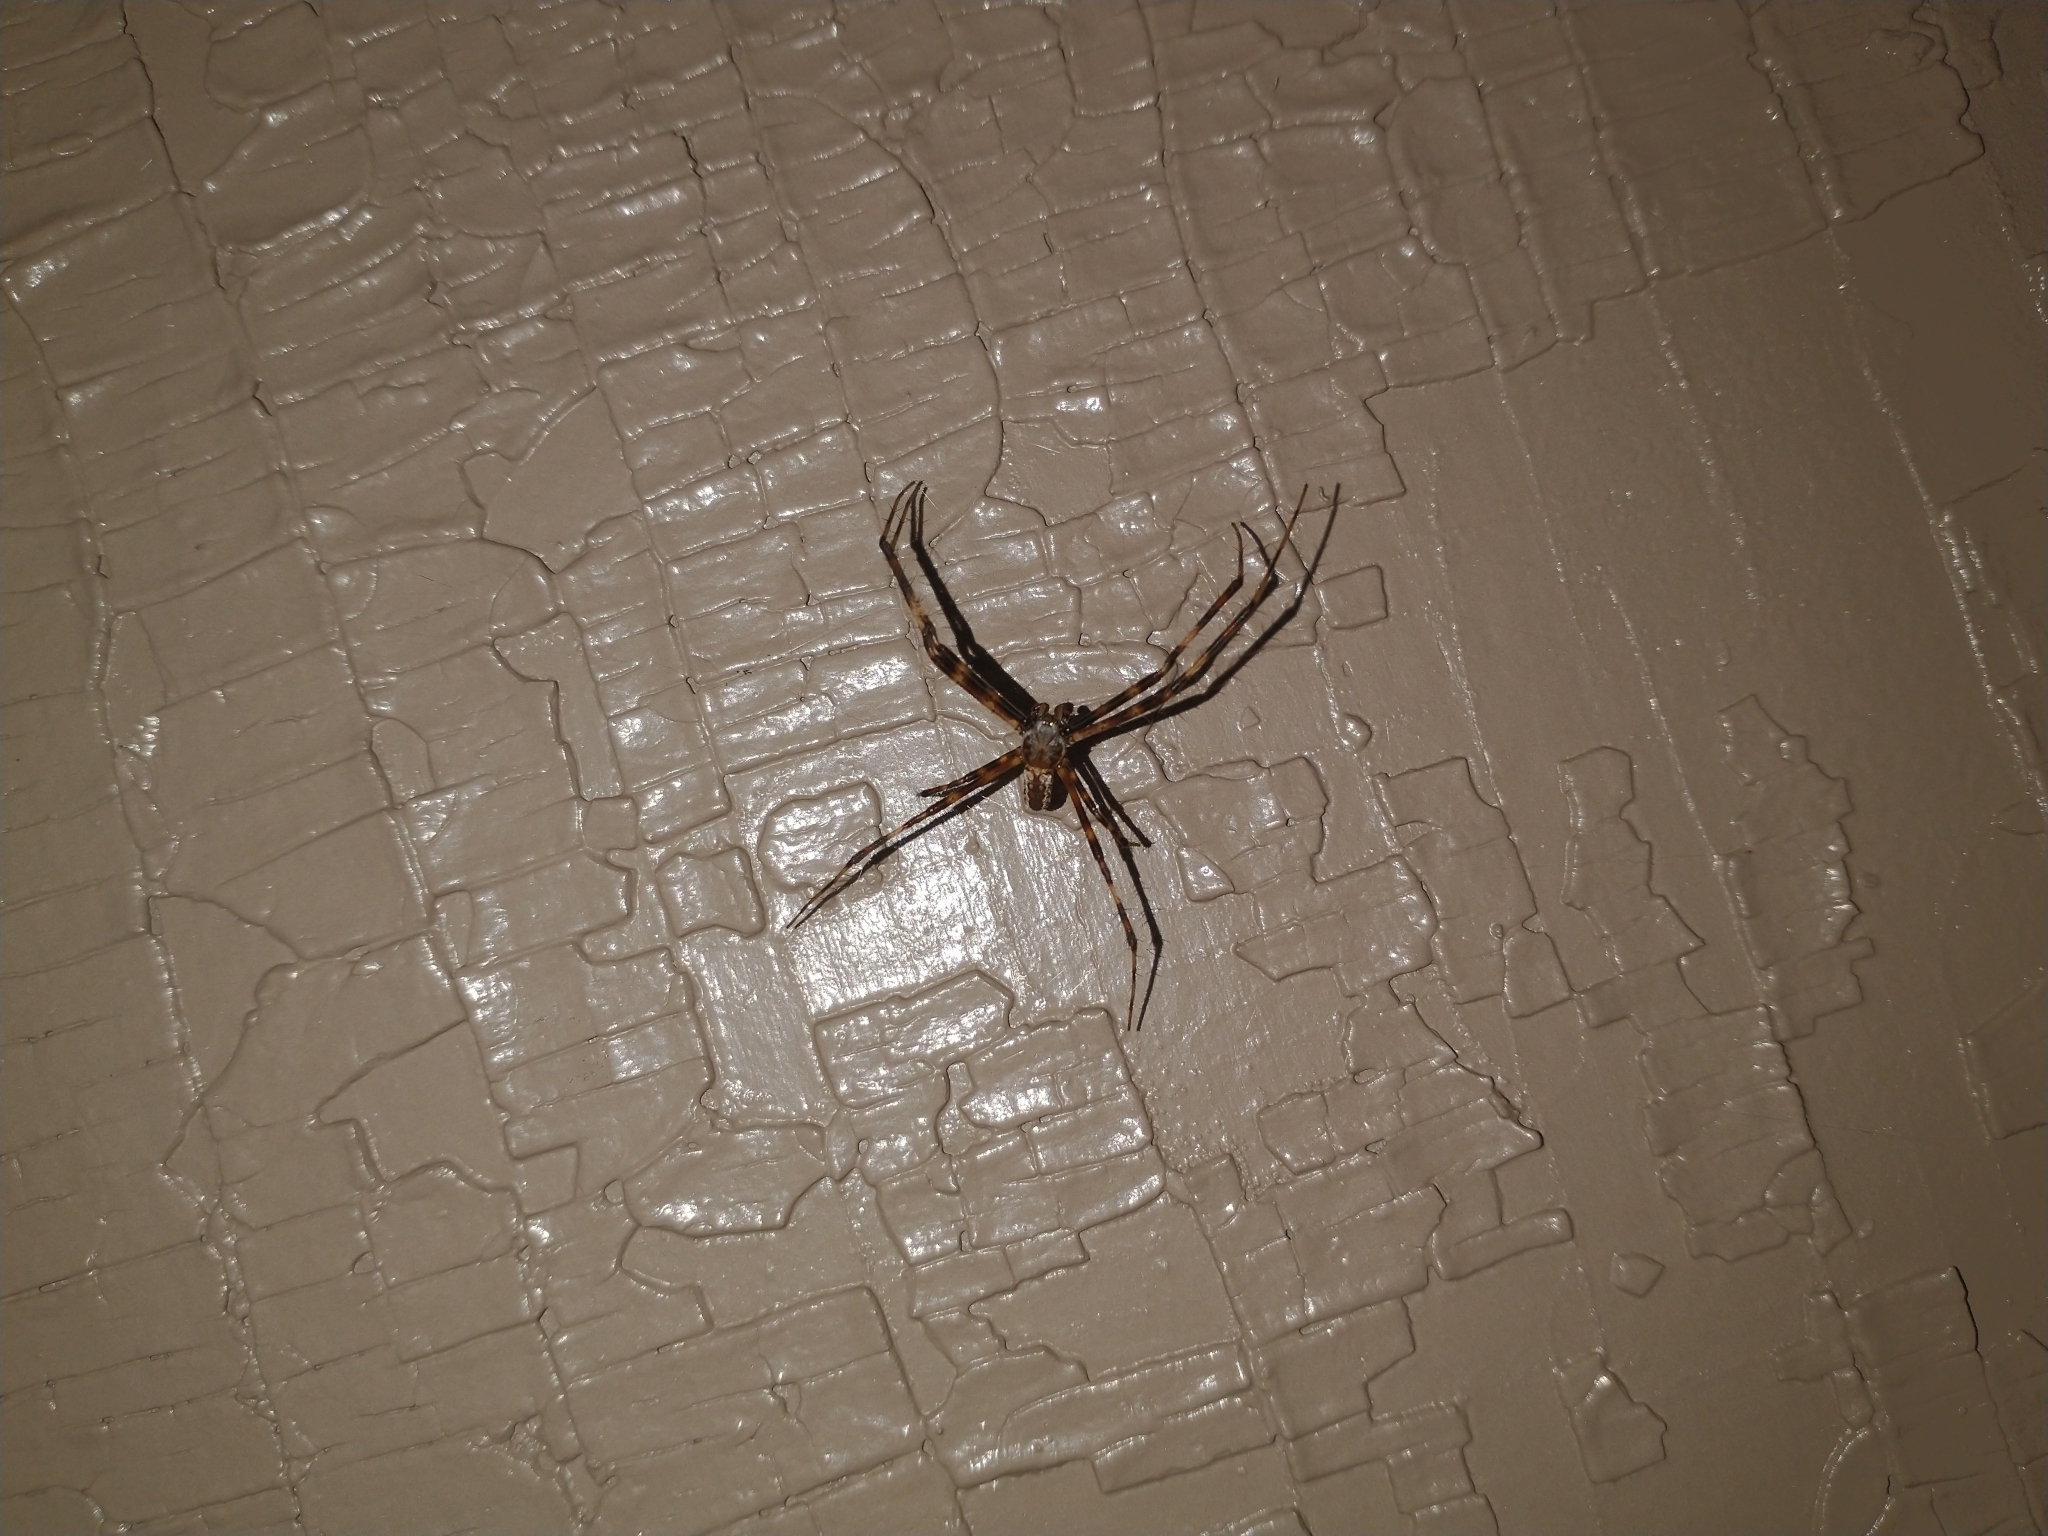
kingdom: Animalia
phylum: Arthropoda
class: Arachnida
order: Araneae
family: Araneidae
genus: Argiope
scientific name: Argiope aurantia
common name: Orb weavers
